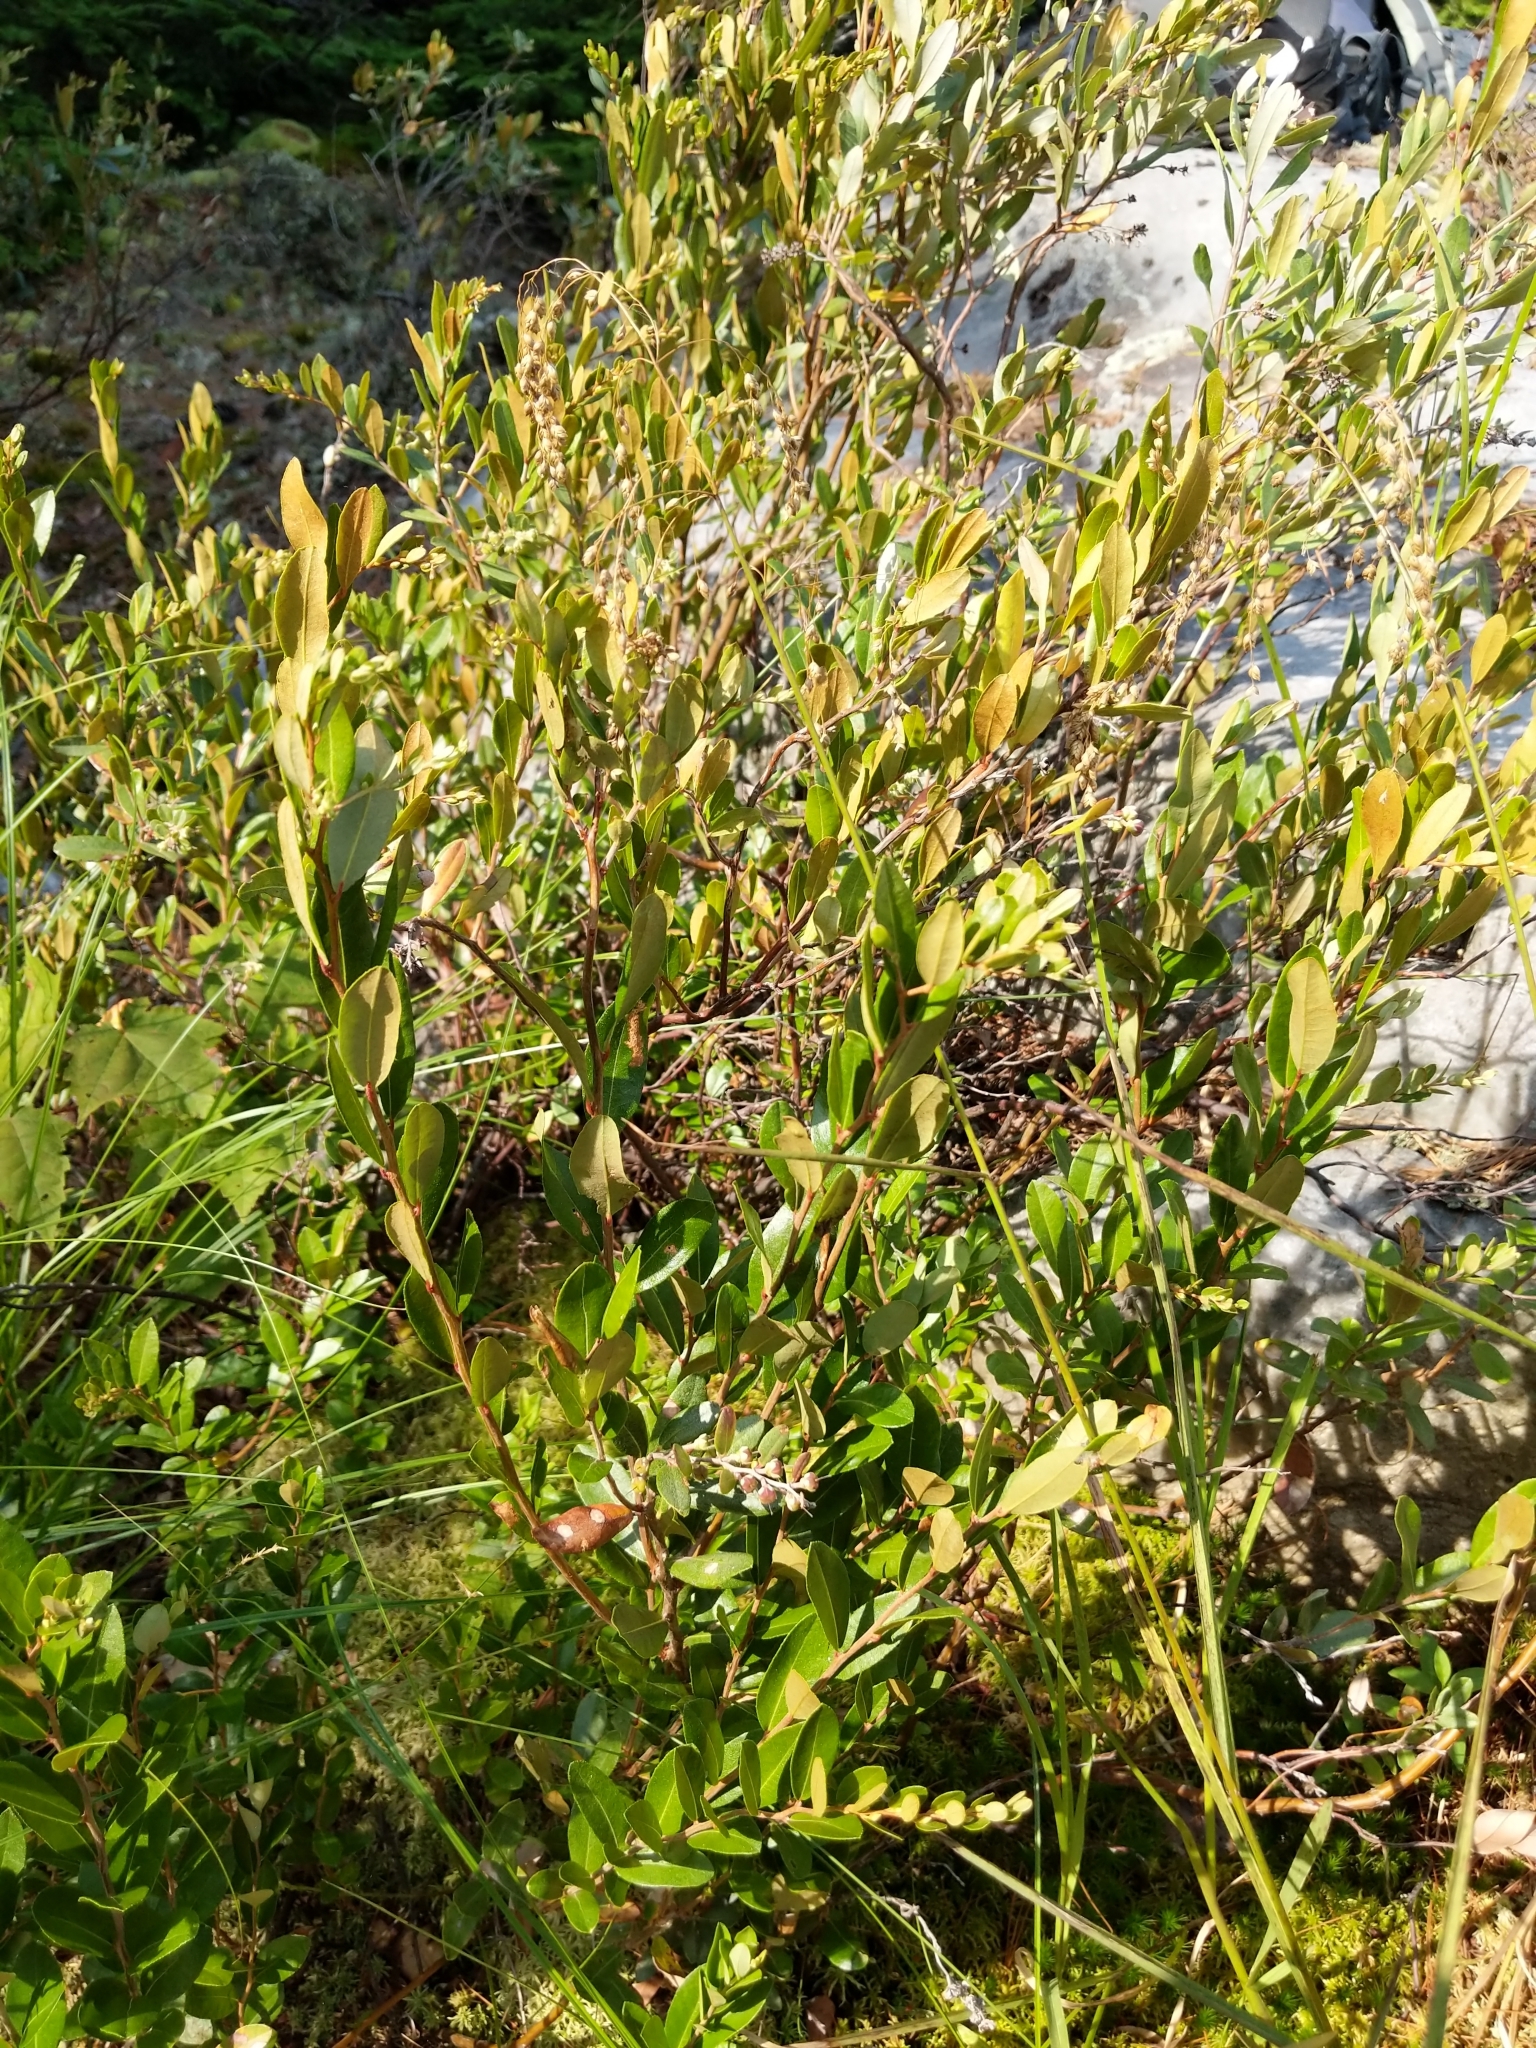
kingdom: Plantae
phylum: Tracheophyta
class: Magnoliopsida
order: Ericales
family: Ericaceae
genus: Chamaedaphne
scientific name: Chamaedaphne calyculata
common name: Leatherleaf
